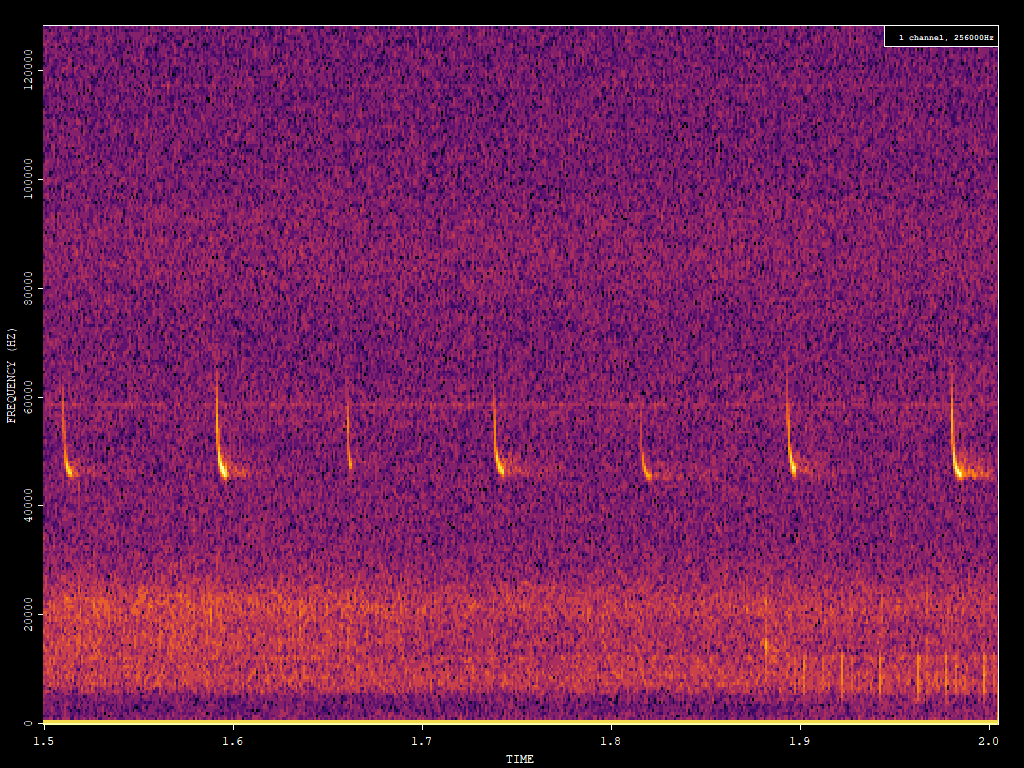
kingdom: Animalia
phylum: Chordata
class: Mammalia
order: Chiroptera
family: Vespertilionidae
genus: Pipistrellus
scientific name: Pipistrellus pipistrellus
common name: Common pipistrelle
